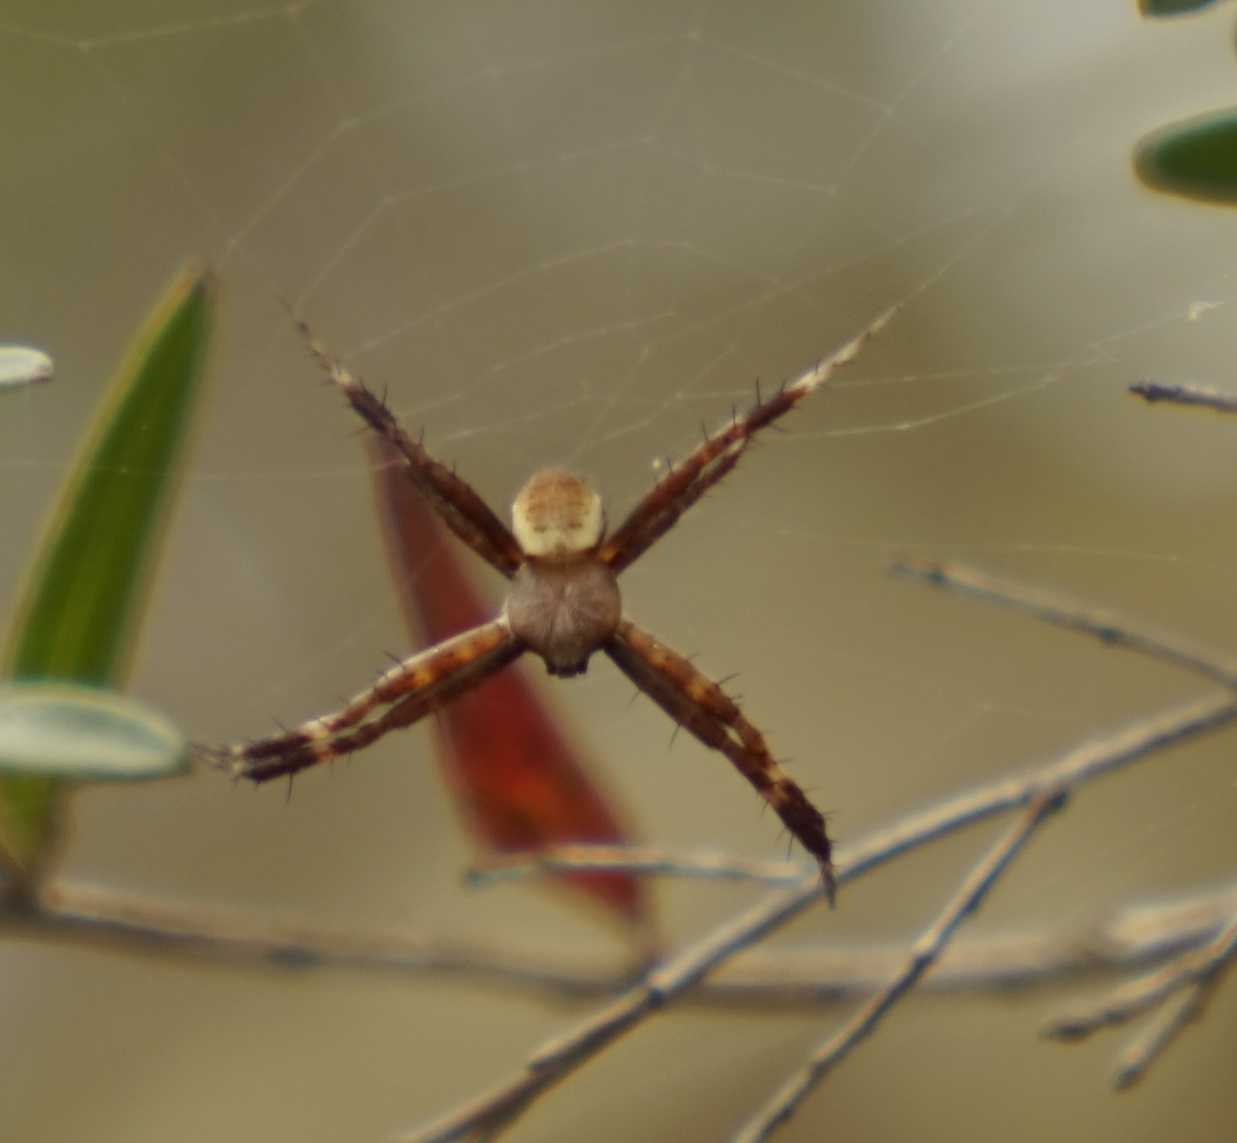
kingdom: Animalia
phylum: Arthropoda
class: Arachnida
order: Araneae
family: Araneidae
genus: Argiope
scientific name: Argiope keyserlingi
